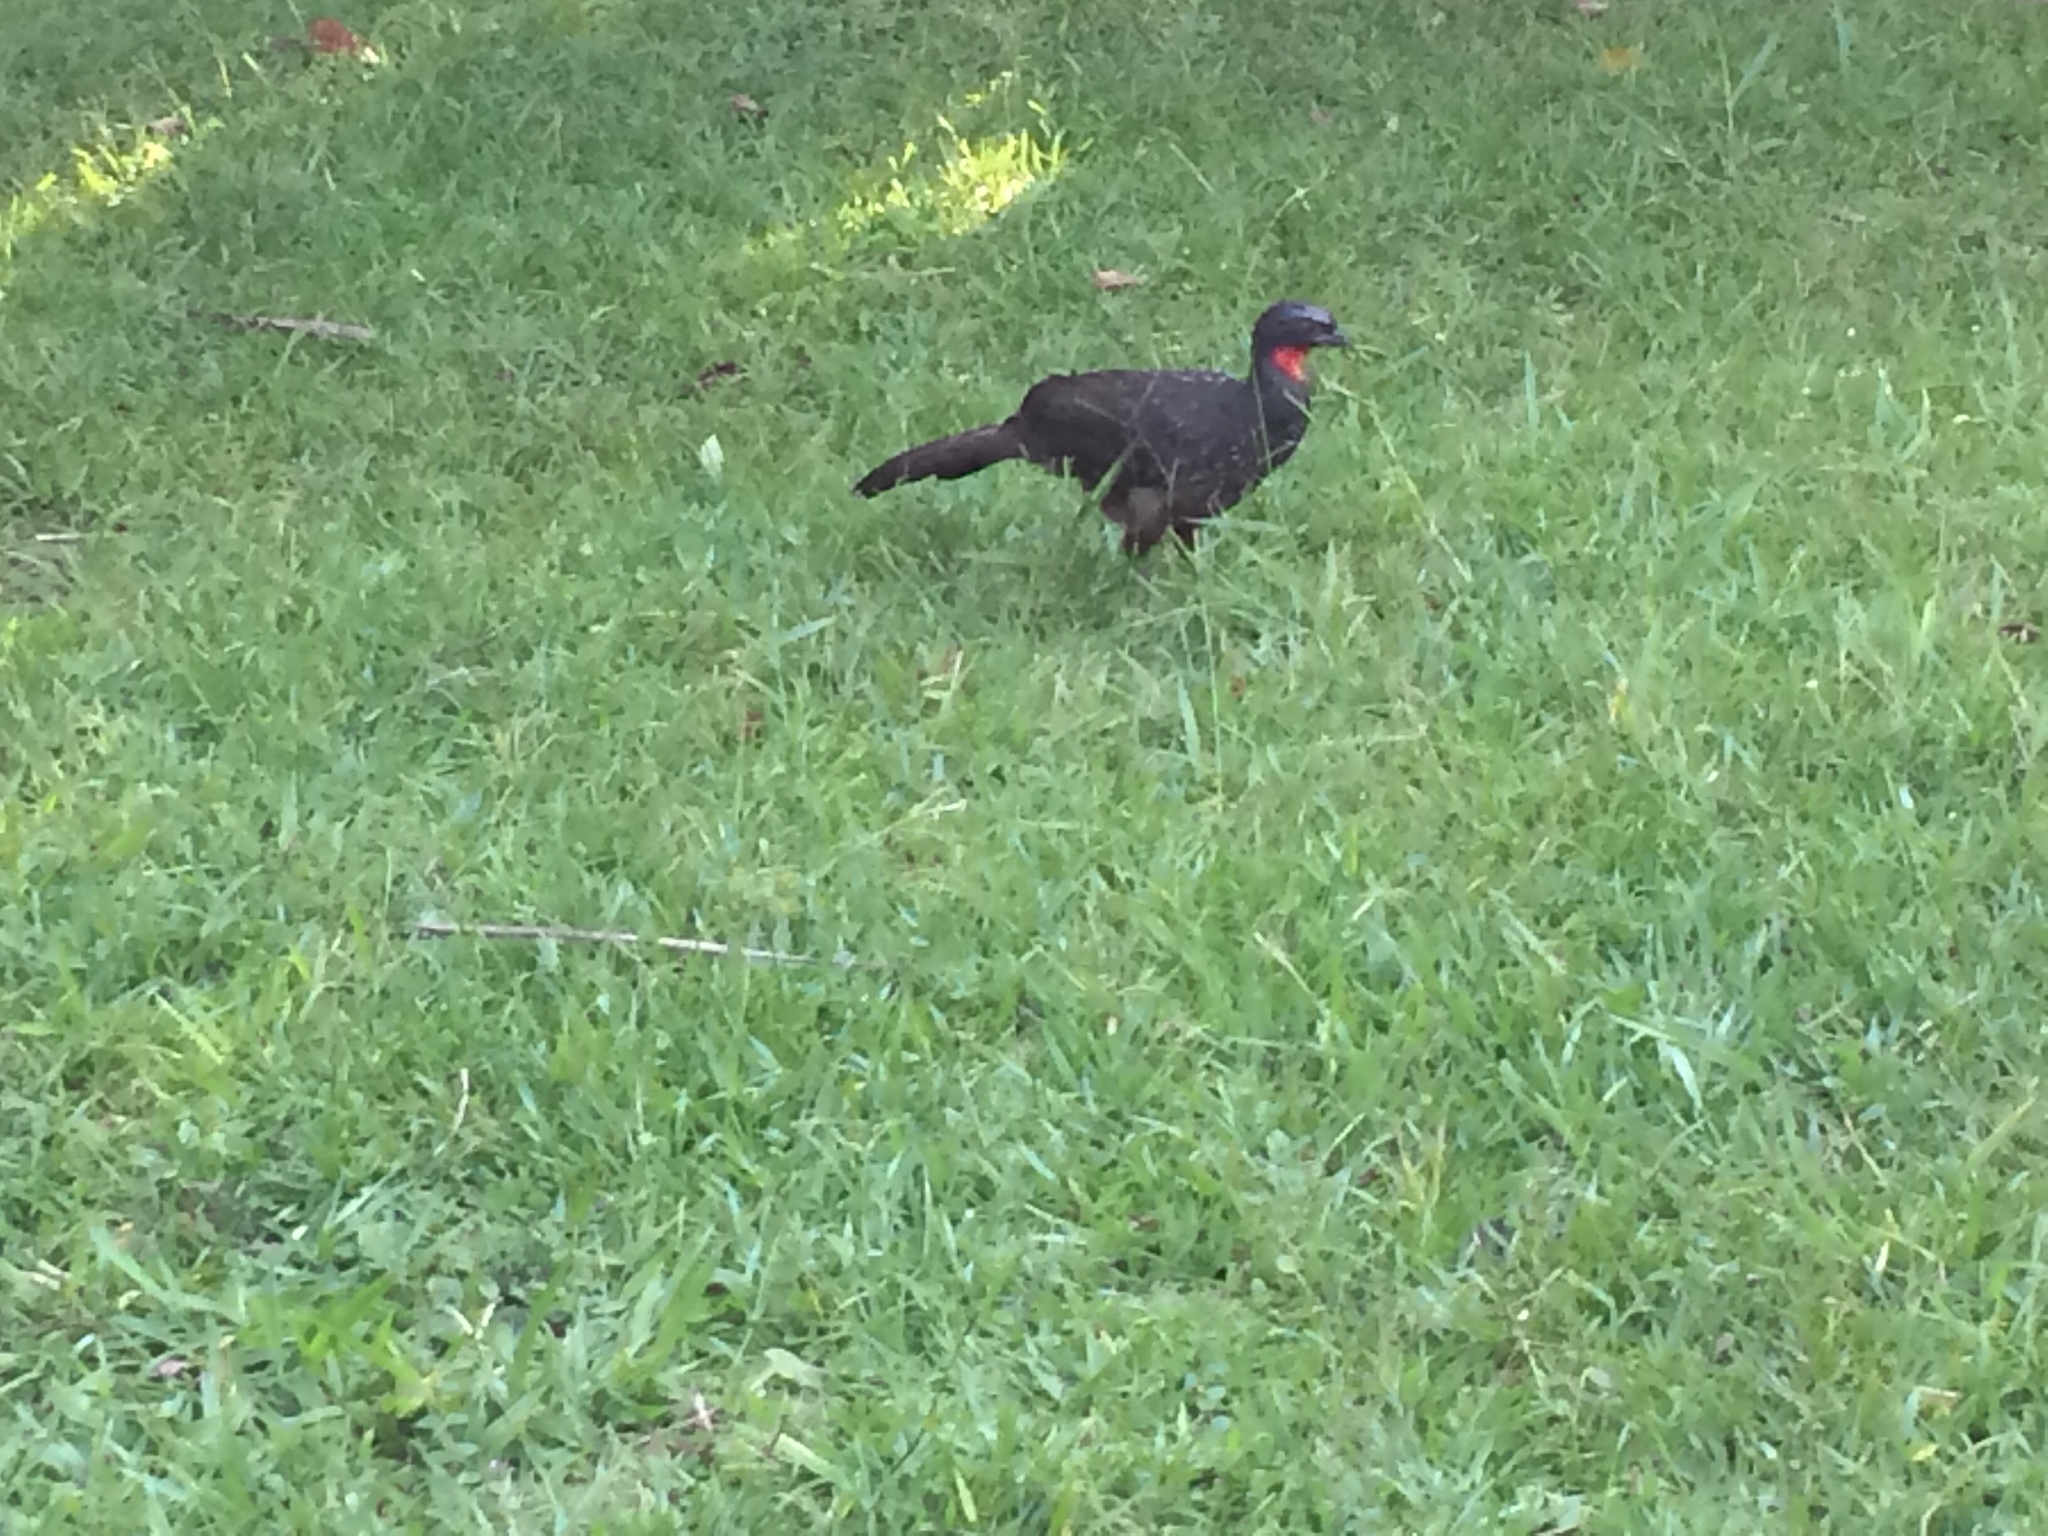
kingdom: Animalia
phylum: Chordata
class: Aves
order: Galliformes
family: Cracidae
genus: Penelope
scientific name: Penelope obscura
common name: Dusky-legged guan
